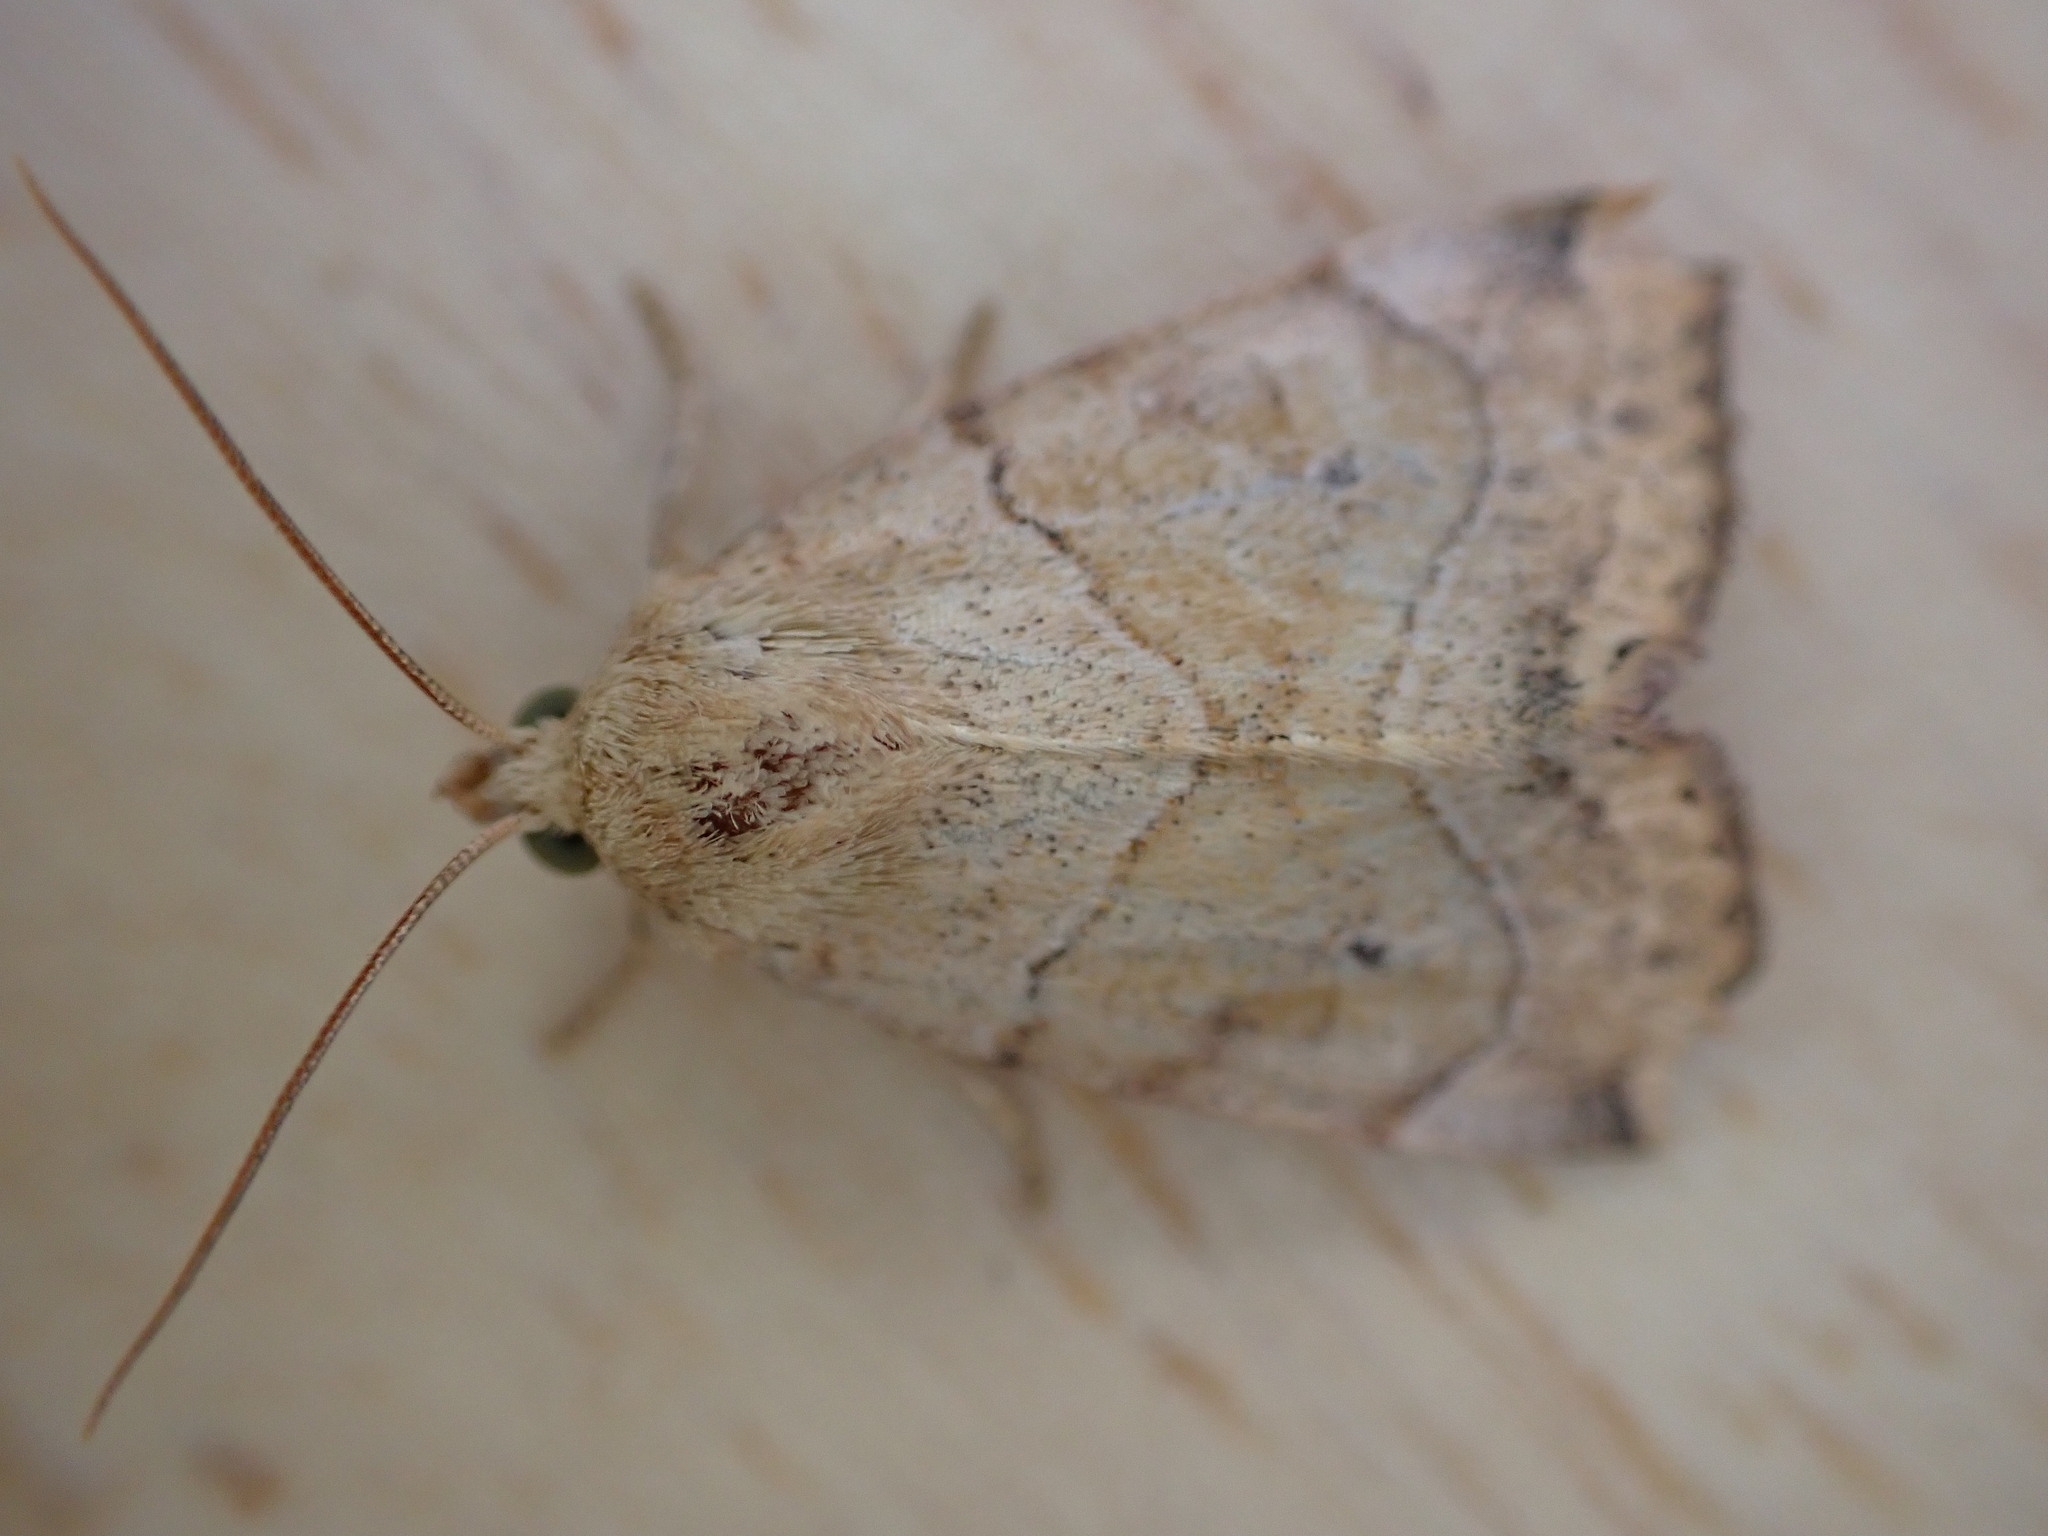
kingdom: Animalia
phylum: Arthropoda
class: Insecta
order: Lepidoptera
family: Noctuidae
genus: Cosmia
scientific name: Cosmia trapezina
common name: Dun-bar
